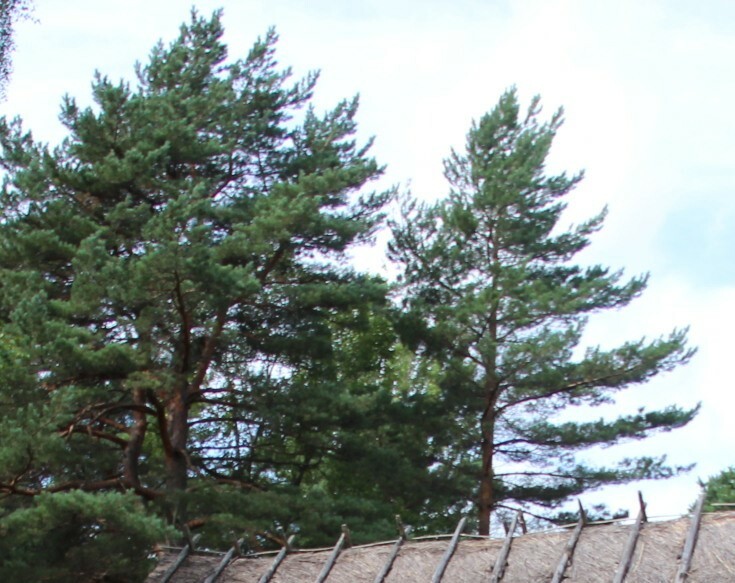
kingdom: Plantae
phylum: Tracheophyta
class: Pinopsida
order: Pinales
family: Pinaceae
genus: Pinus
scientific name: Pinus sylvestris
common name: Scots pine
